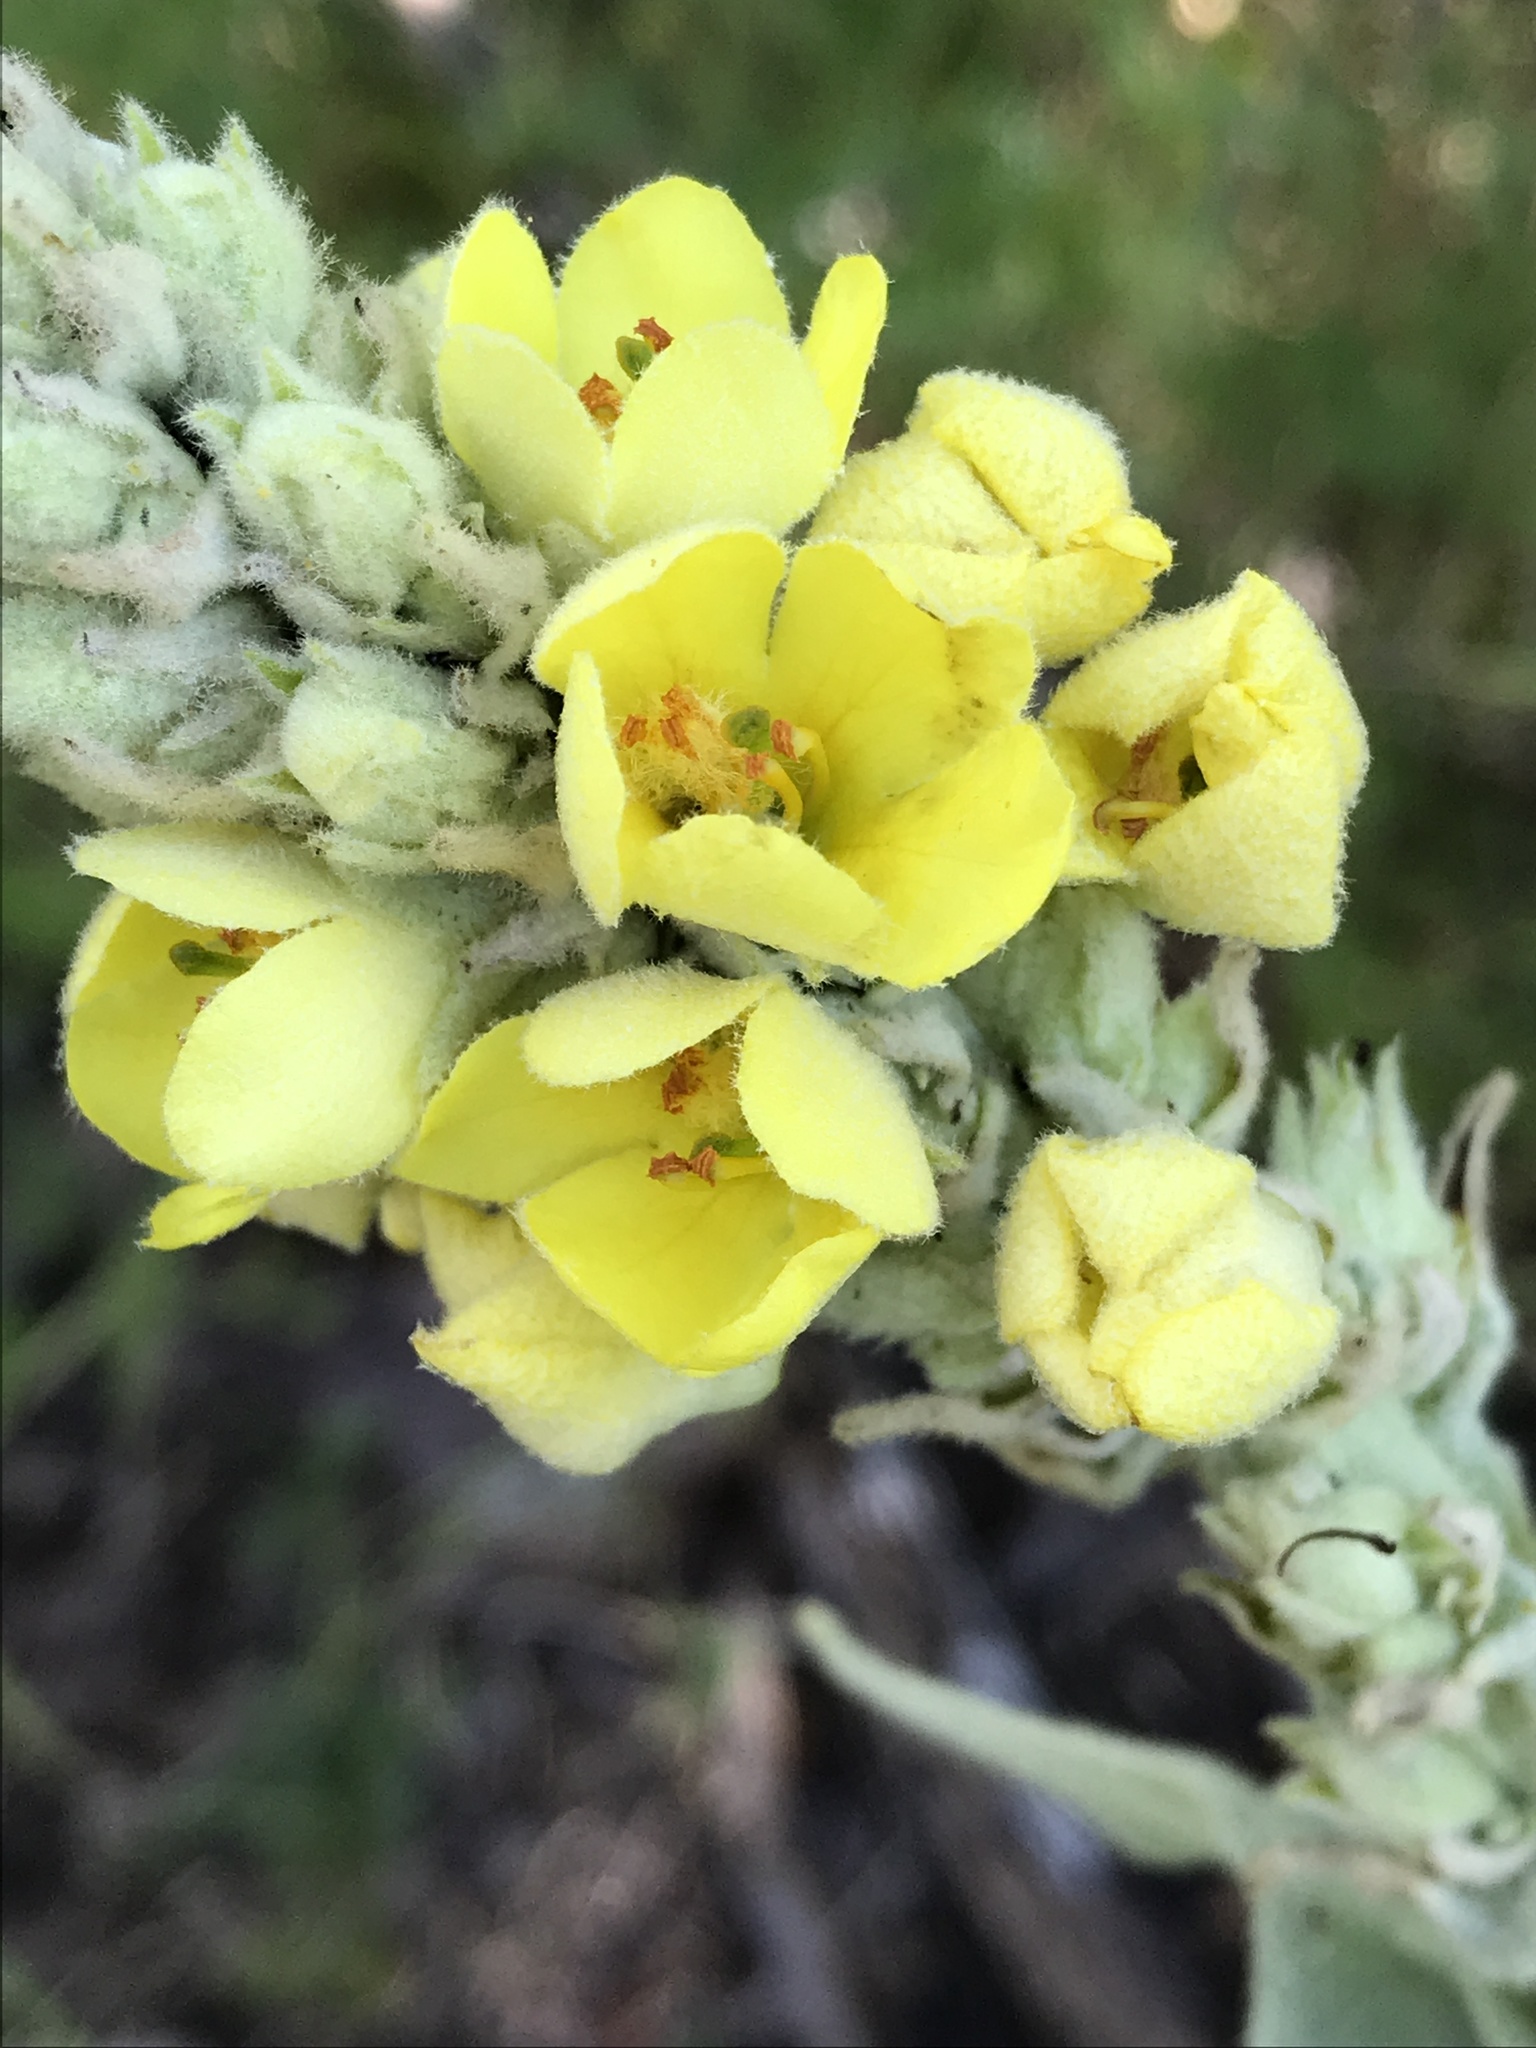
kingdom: Plantae
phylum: Tracheophyta
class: Magnoliopsida
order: Lamiales
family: Scrophulariaceae
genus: Verbascum
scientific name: Verbascum thapsus
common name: Common mullein
